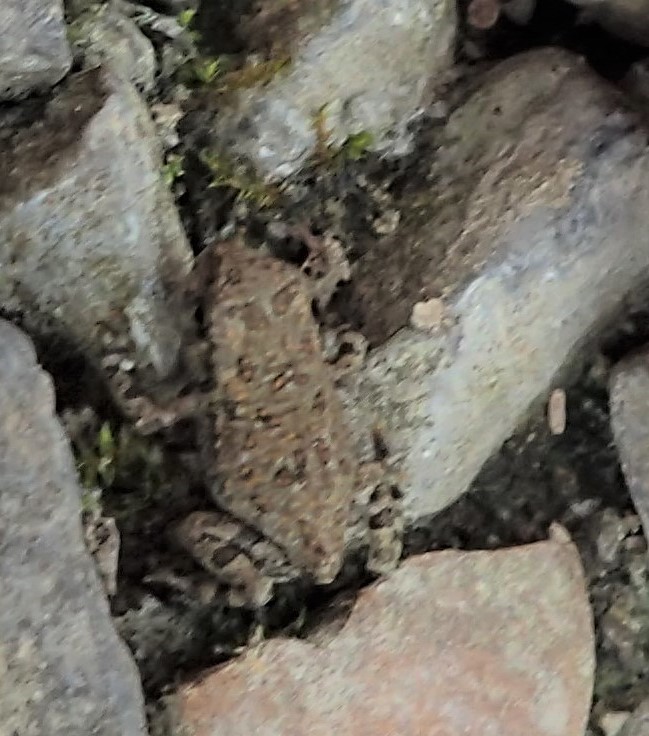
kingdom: Animalia
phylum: Chordata
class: Amphibia
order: Anura
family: Bufonidae
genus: Anaxyrus
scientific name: Anaxyrus
